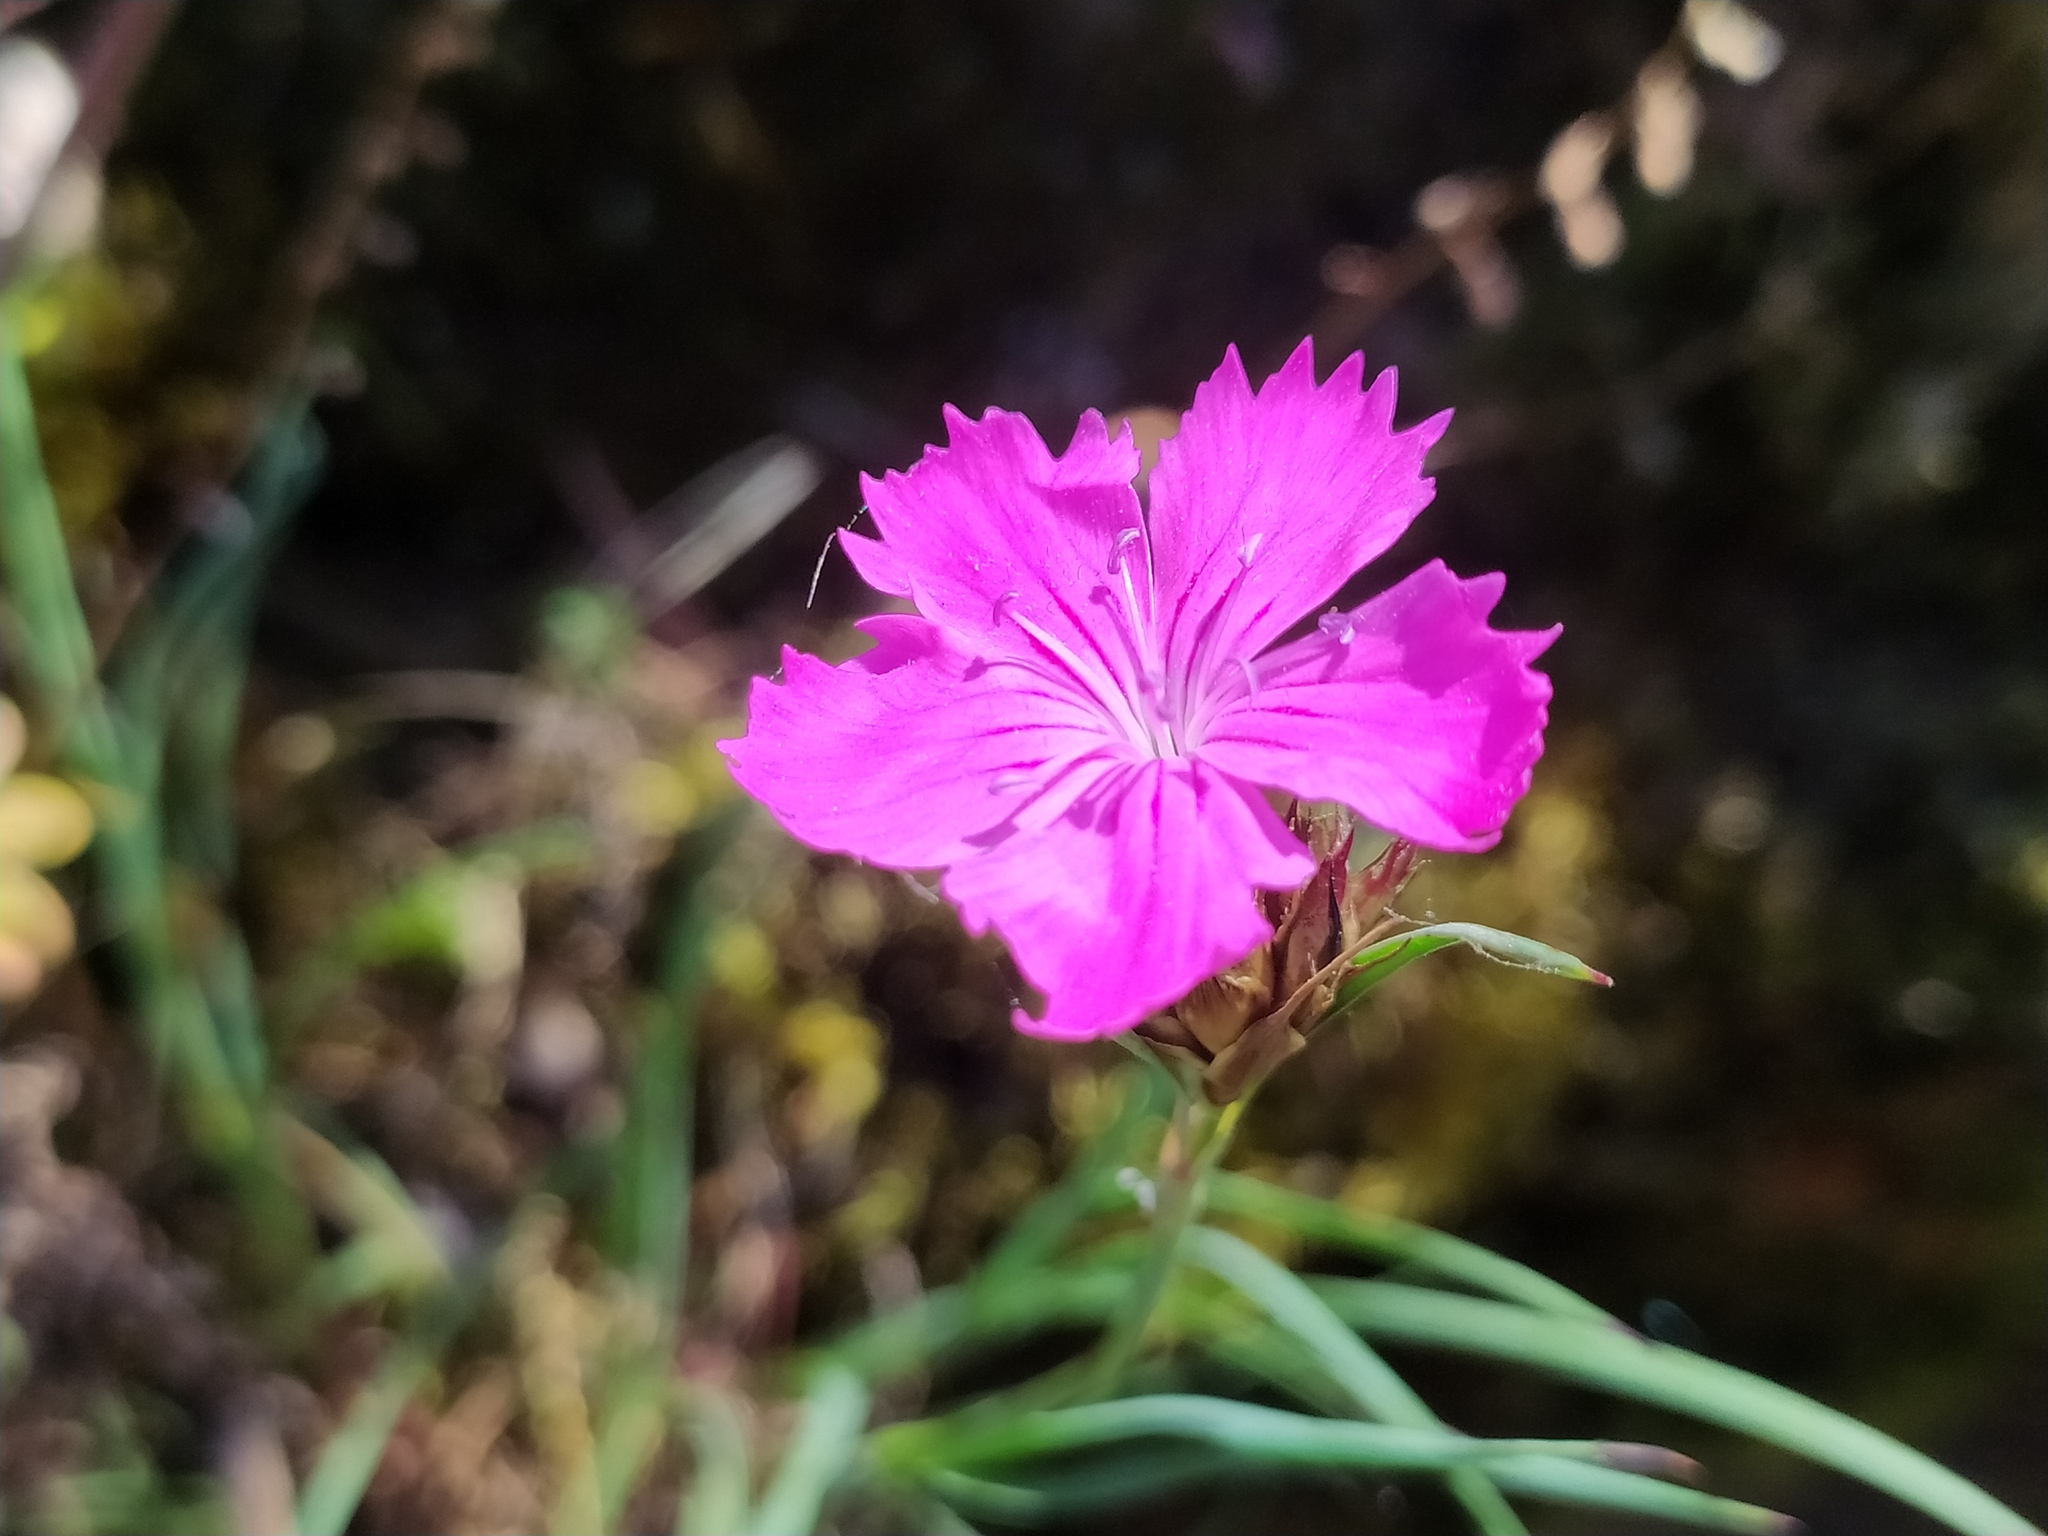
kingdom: Plantae
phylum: Tracheophyta
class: Magnoliopsida
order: Caryophyllales
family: Caryophyllaceae
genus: Dianthus
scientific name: Dianthus carthusianorum
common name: Carthusian pink
